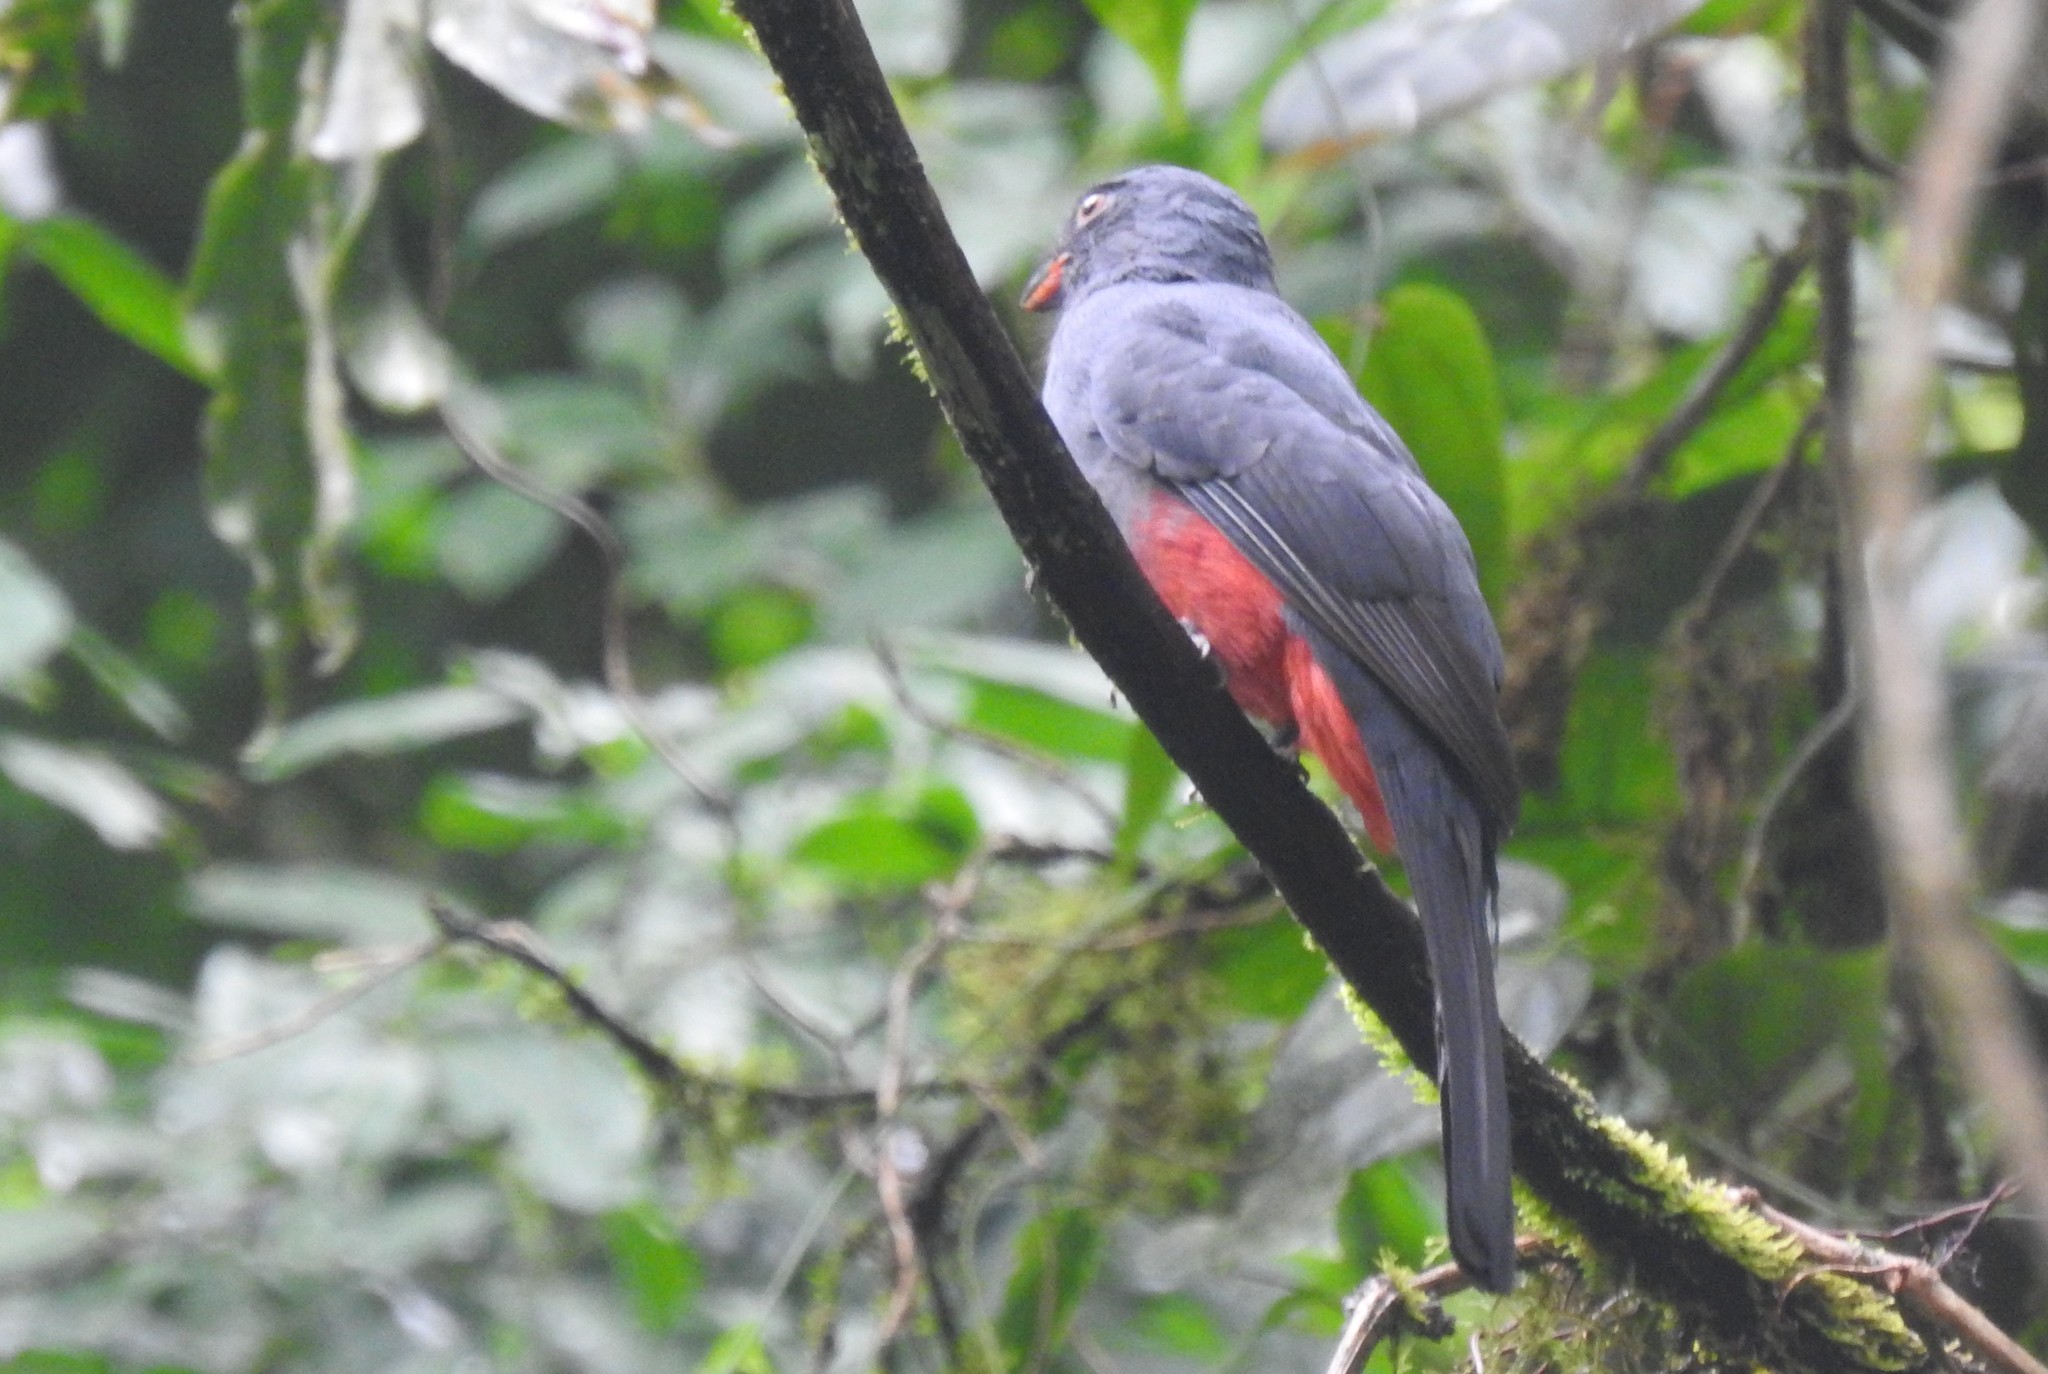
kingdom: Animalia
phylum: Chordata
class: Aves
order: Trogoniformes
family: Trogonidae
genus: Trogon
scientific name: Trogon massena
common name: Slaty-tailed trogon
